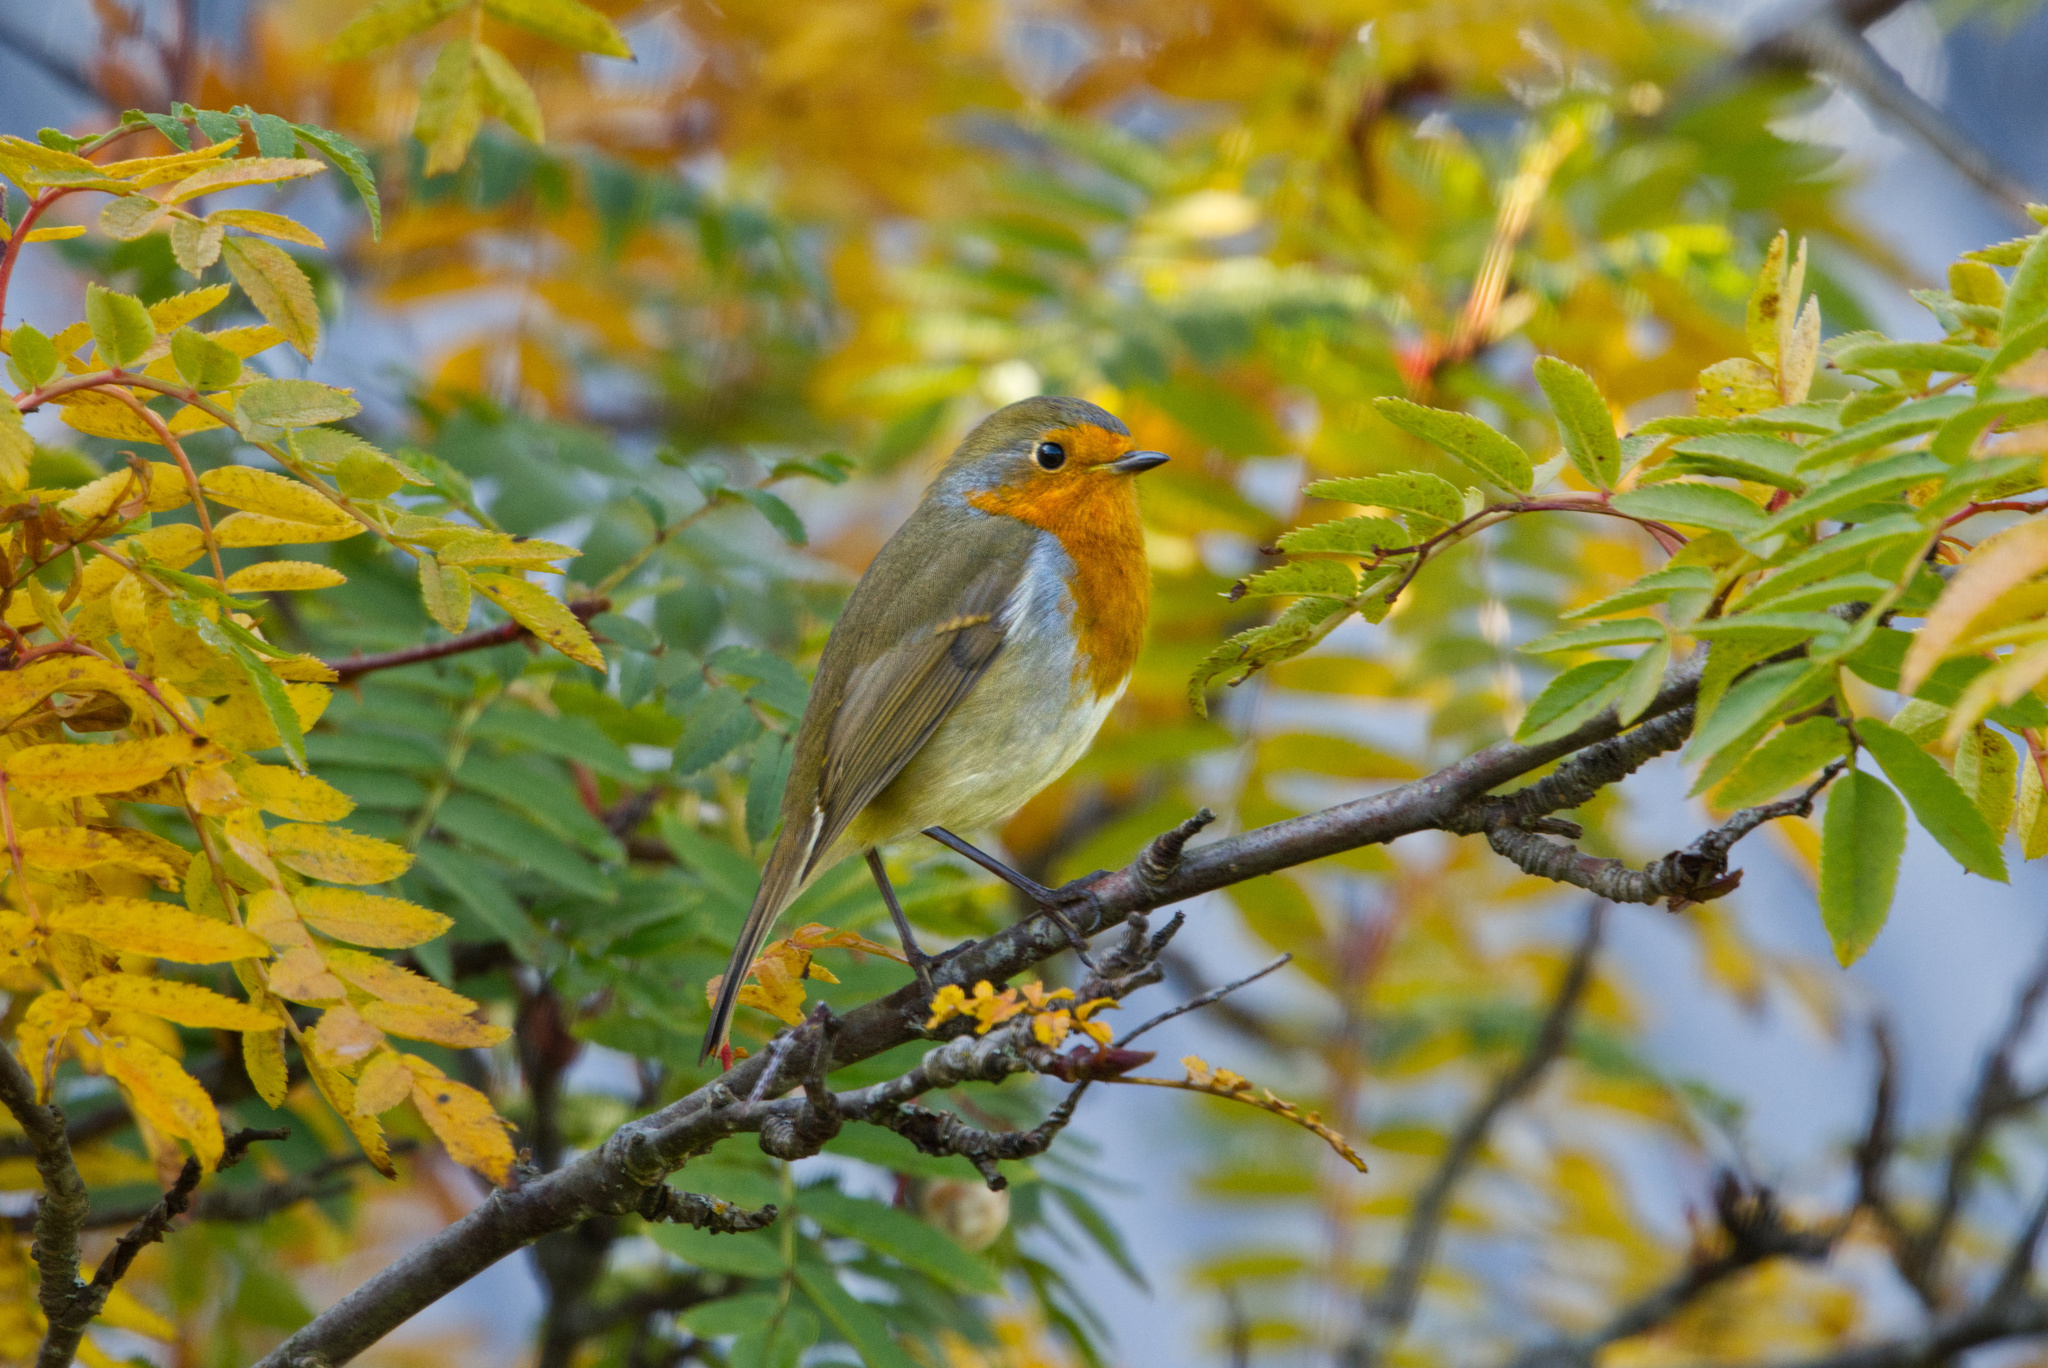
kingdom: Animalia
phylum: Chordata
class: Aves
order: Passeriformes
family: Muscicapidae
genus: Erithacus
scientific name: Erithacus rubecula
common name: European robin
